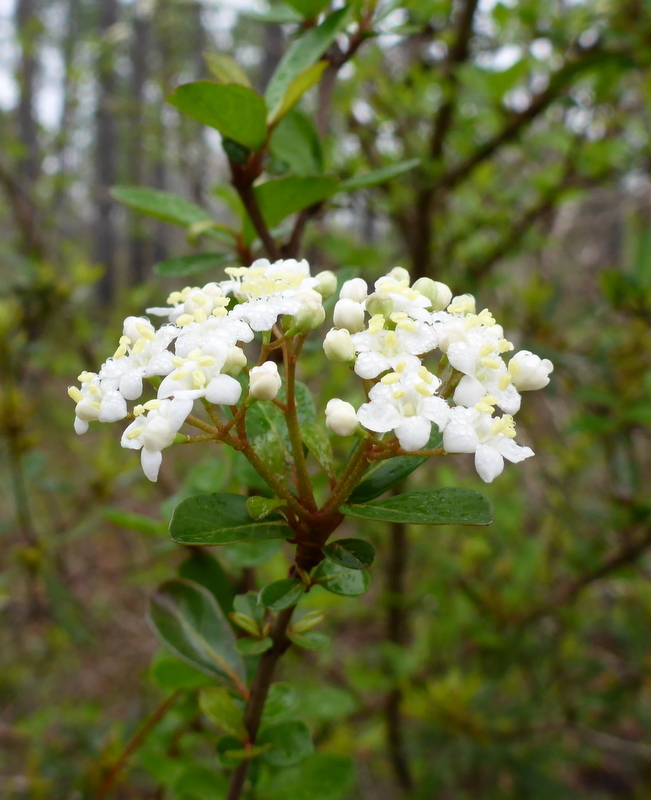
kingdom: Plantae
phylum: Tracheophyta
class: Magnoliopsida
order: Dipsacales
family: Viburnaceae
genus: Viburnum
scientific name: Viburnum obovatum
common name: Walter's viburnum
